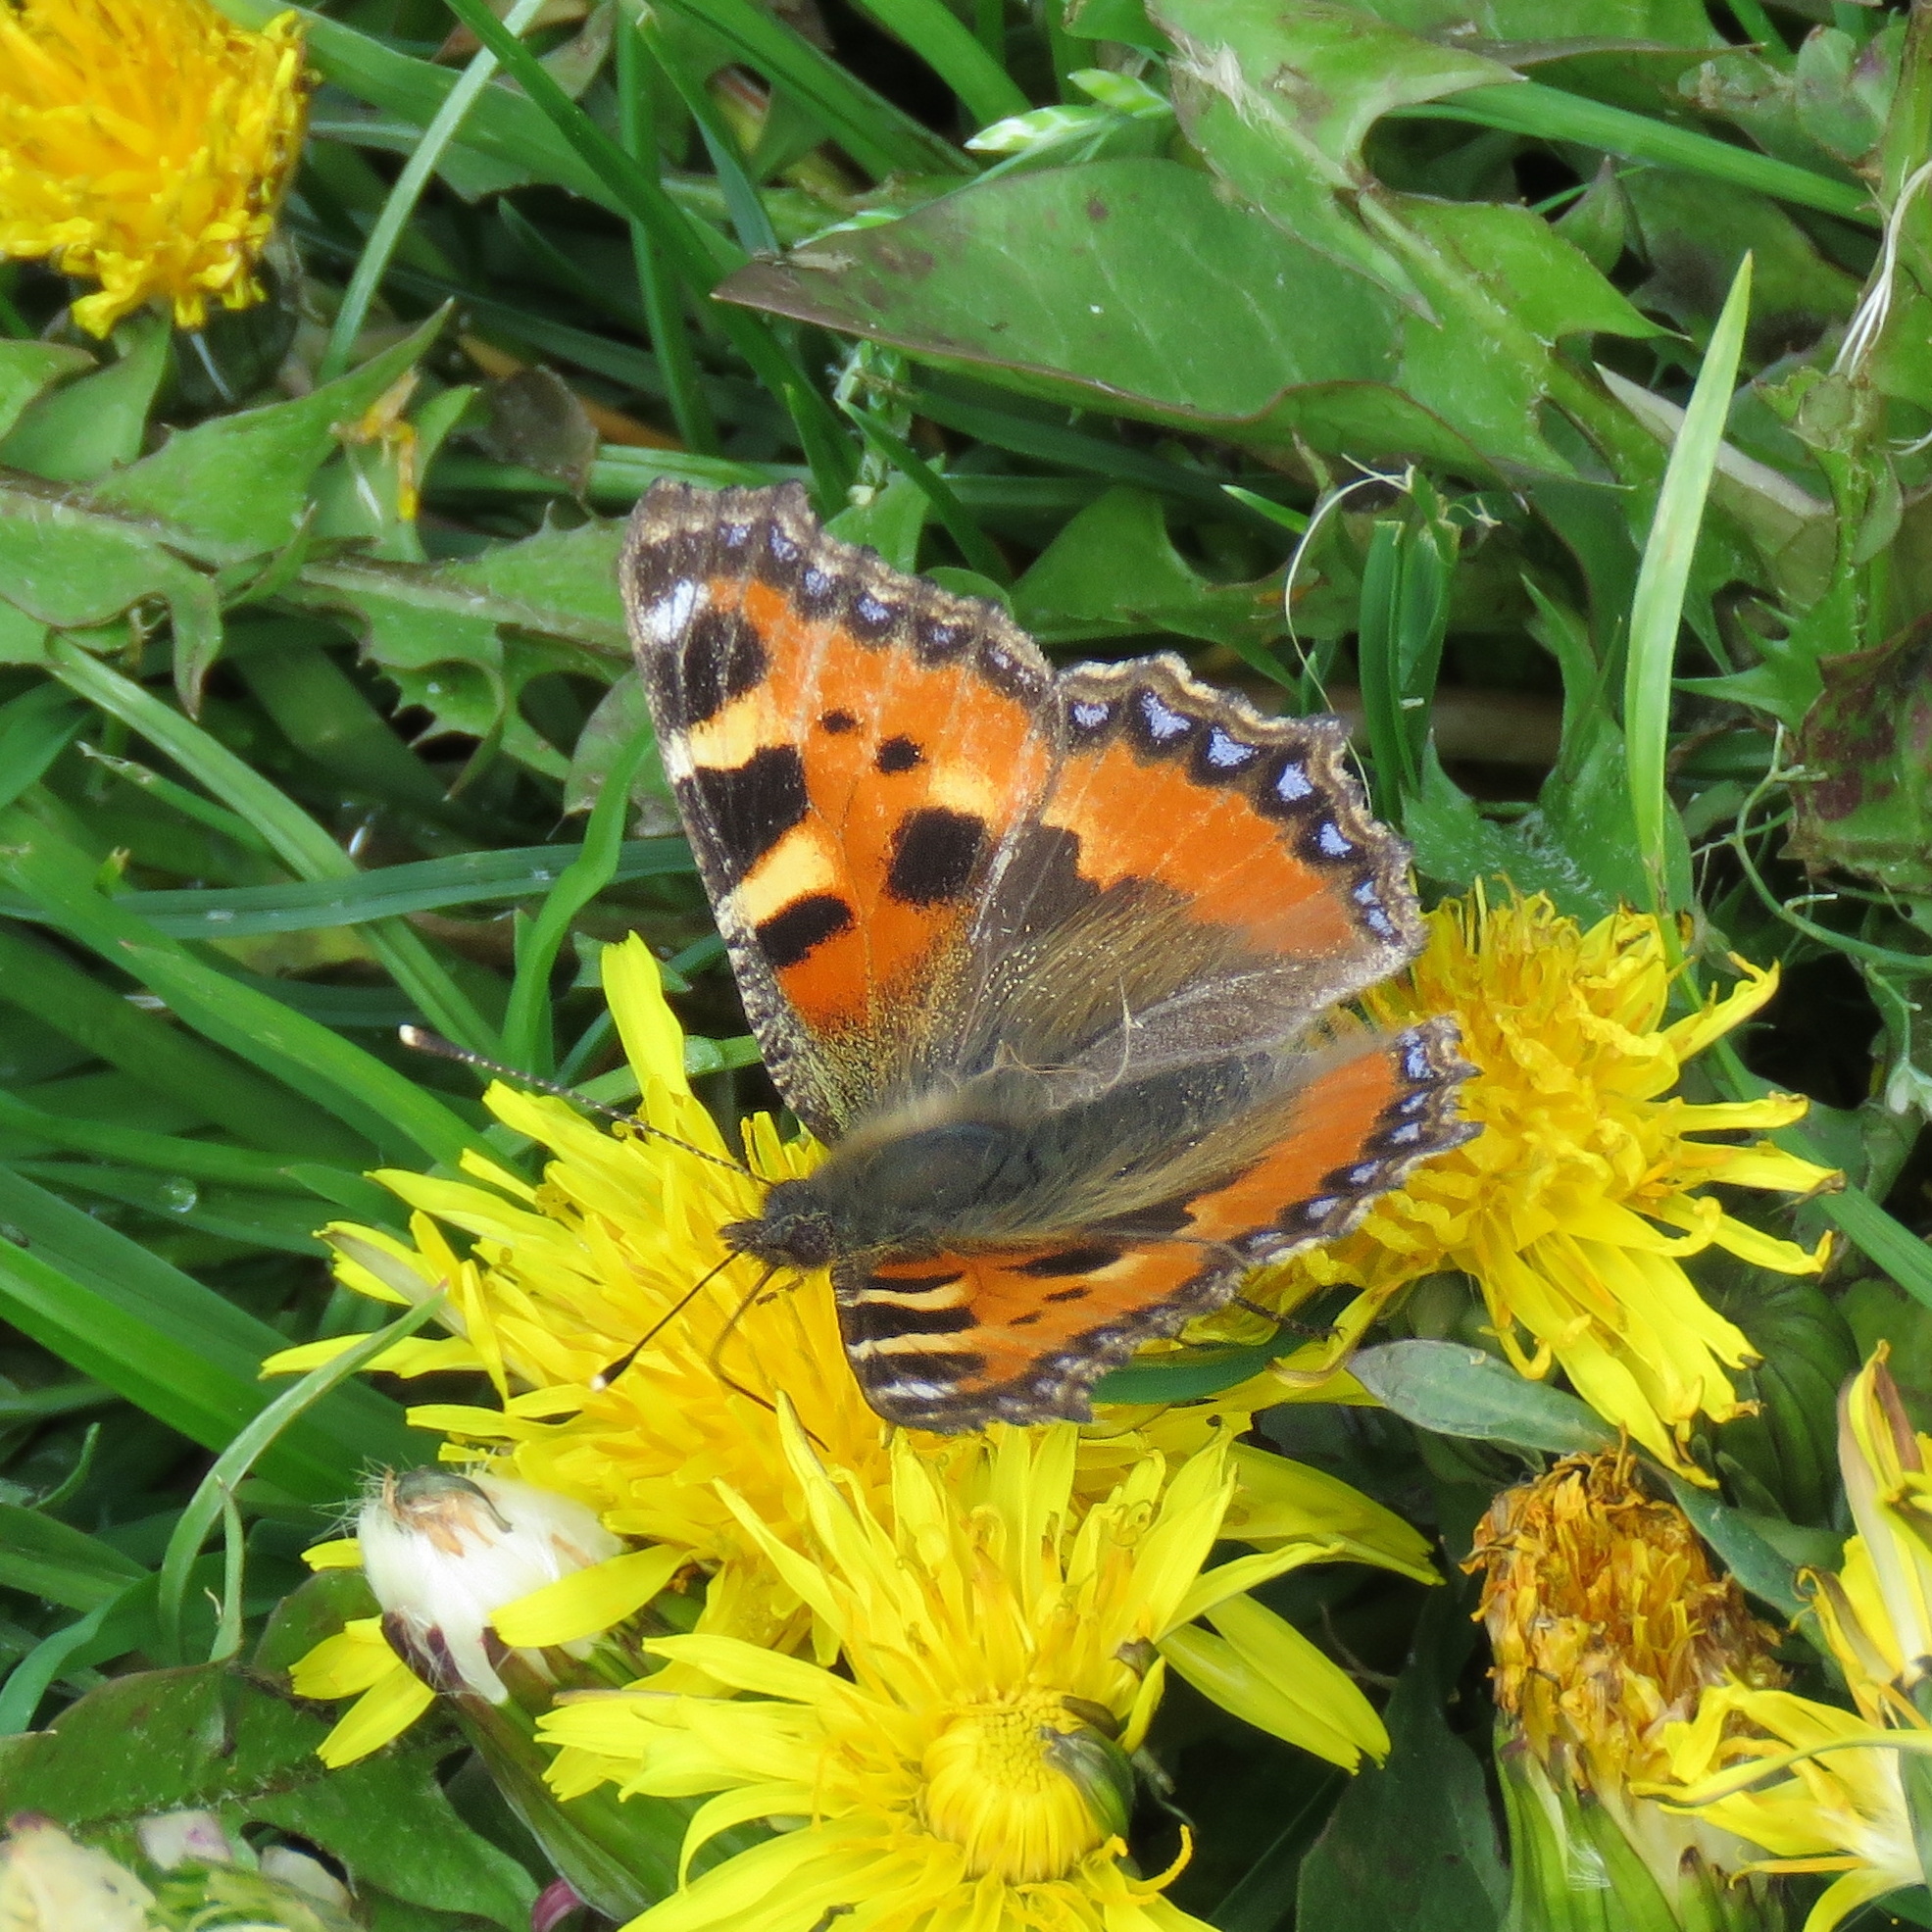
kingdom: Animalia
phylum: Arthropoda
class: Insecta
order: Lepidoptera
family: Nymphalidae
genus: Aglais
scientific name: Aglais urticae
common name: Small tortoiseshell
